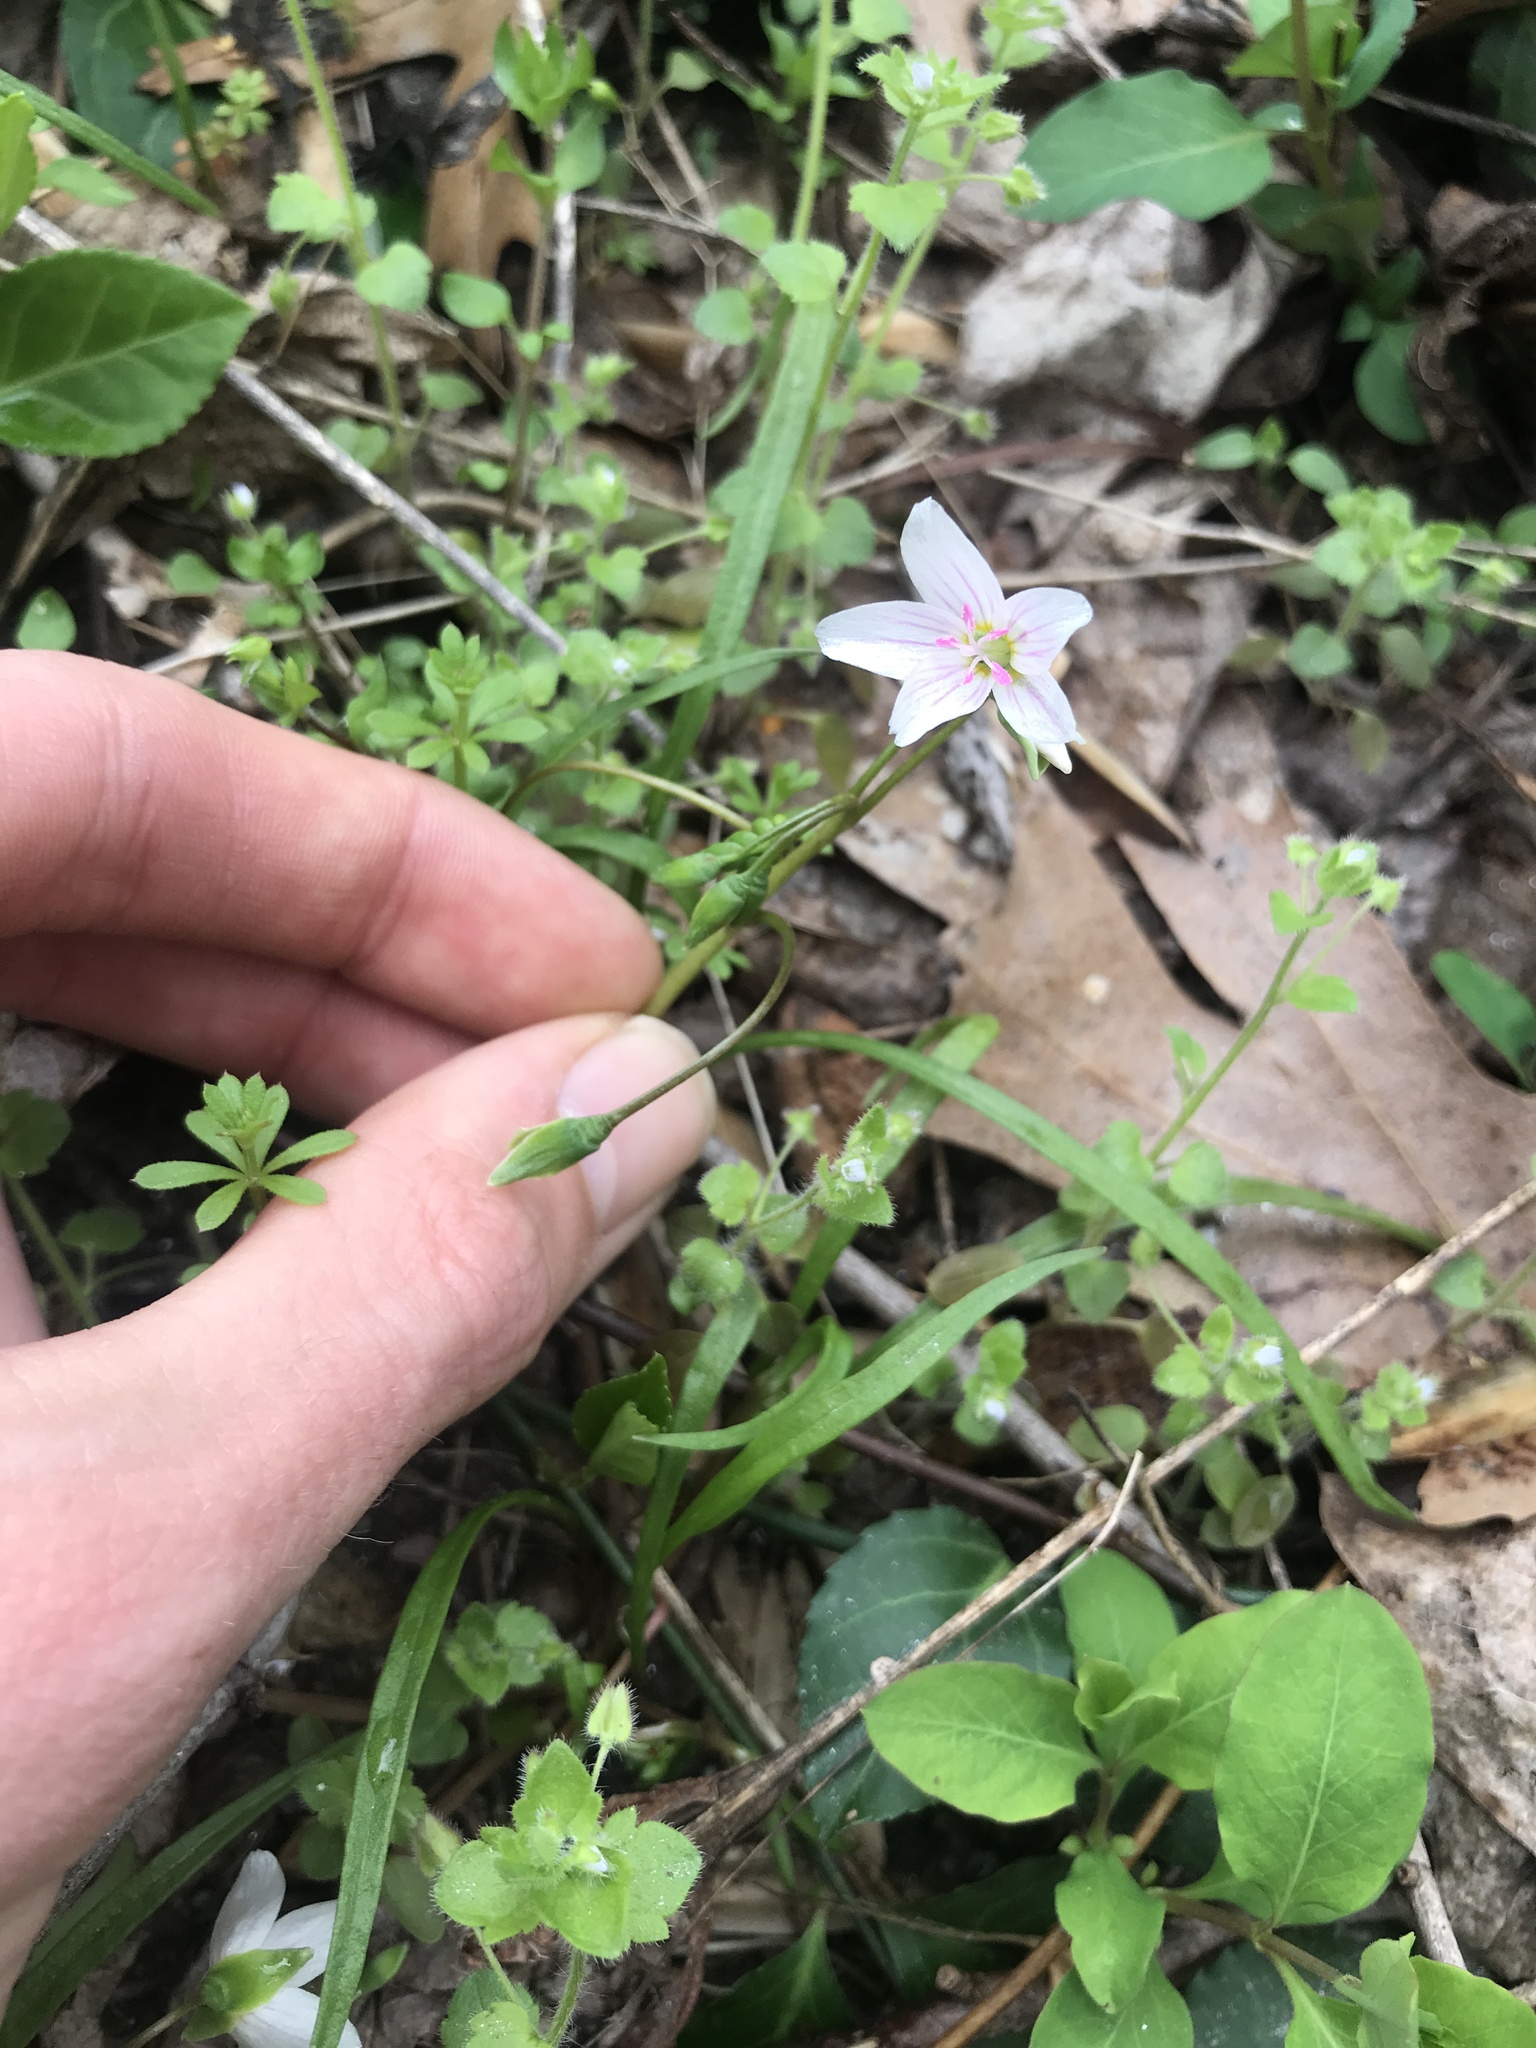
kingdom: Plantae
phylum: Tracheophyta
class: Magnoliopsida
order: Caryophyllales
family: Montiaceae
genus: Claytonia
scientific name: Claytonia virginica
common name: Virginia springbeauty
